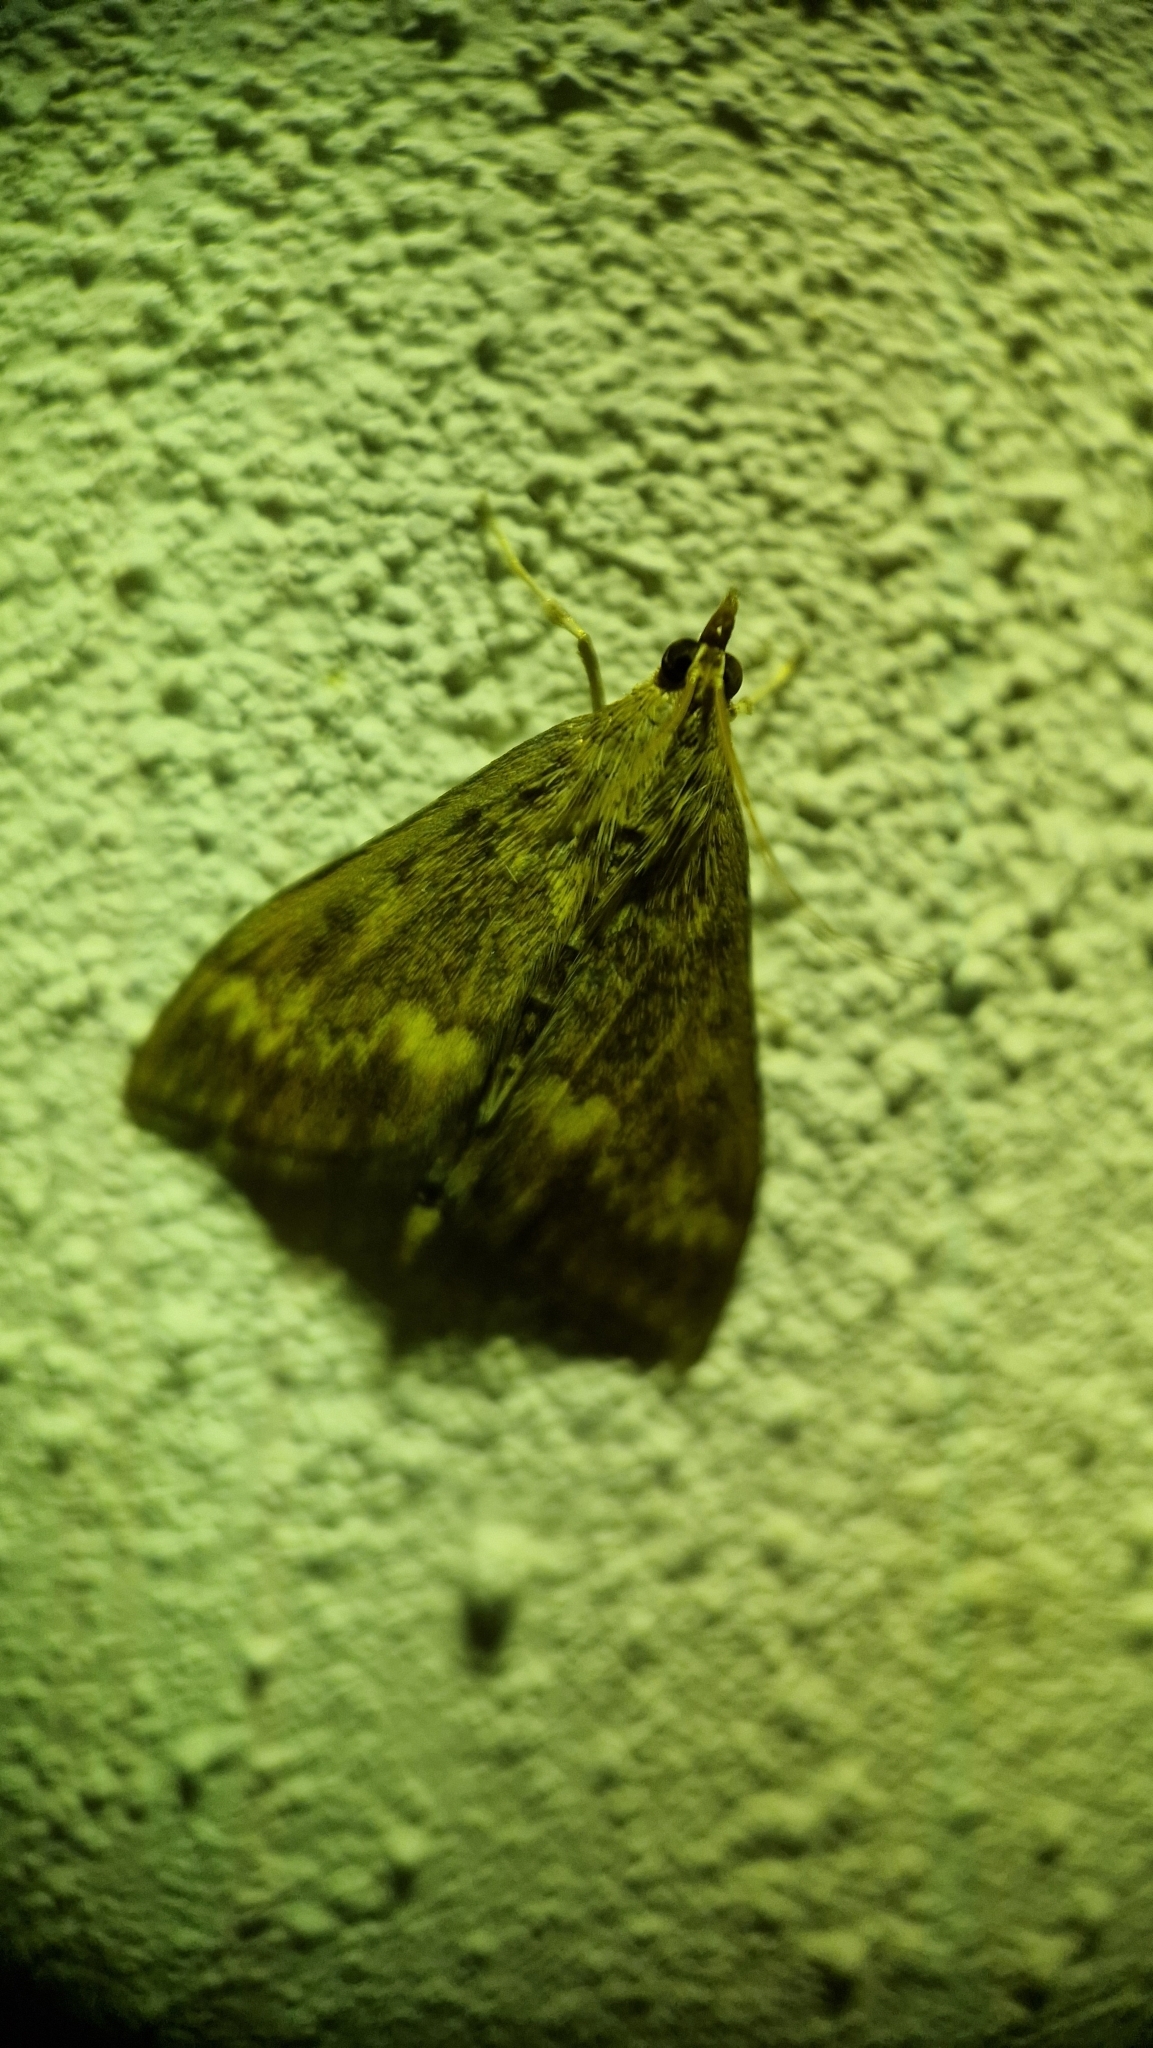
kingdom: Animalia
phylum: Arthropoda
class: Insecta
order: Lepidoptera
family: Crambidae
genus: Ostrinia
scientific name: Ostrinia nubilalis
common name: European corn borer
